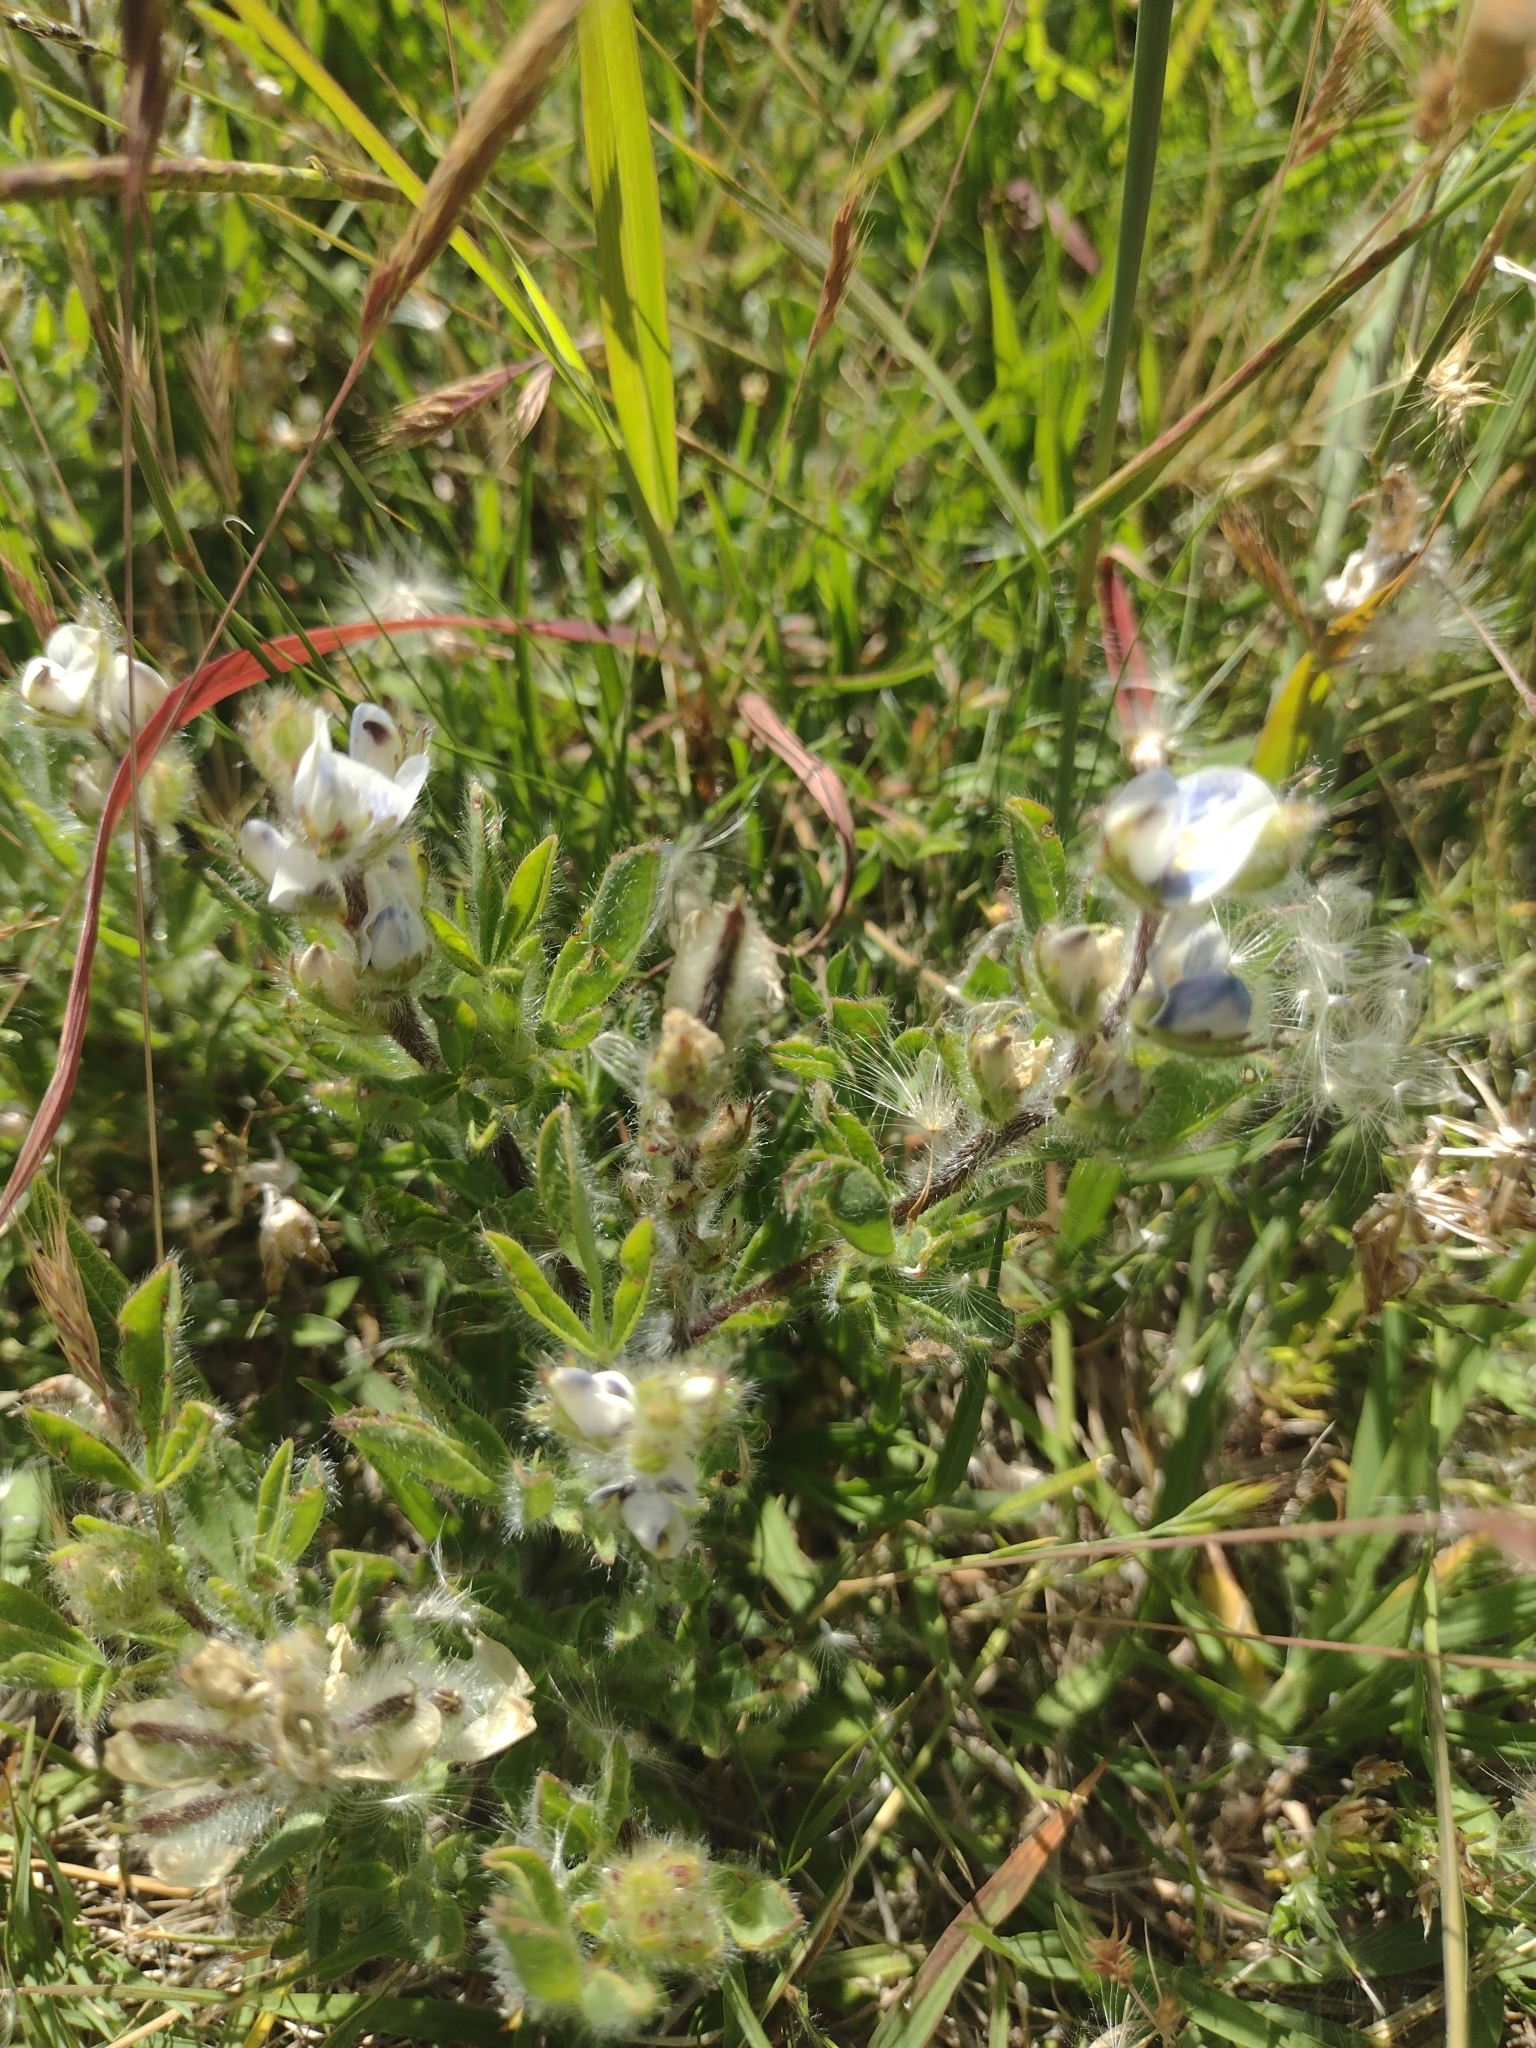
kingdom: Plantae
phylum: Tracheophyta
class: Magnoliopsida
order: Fabales
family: Fabaceae
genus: Lupinus
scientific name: Lupinus bracteolaris
